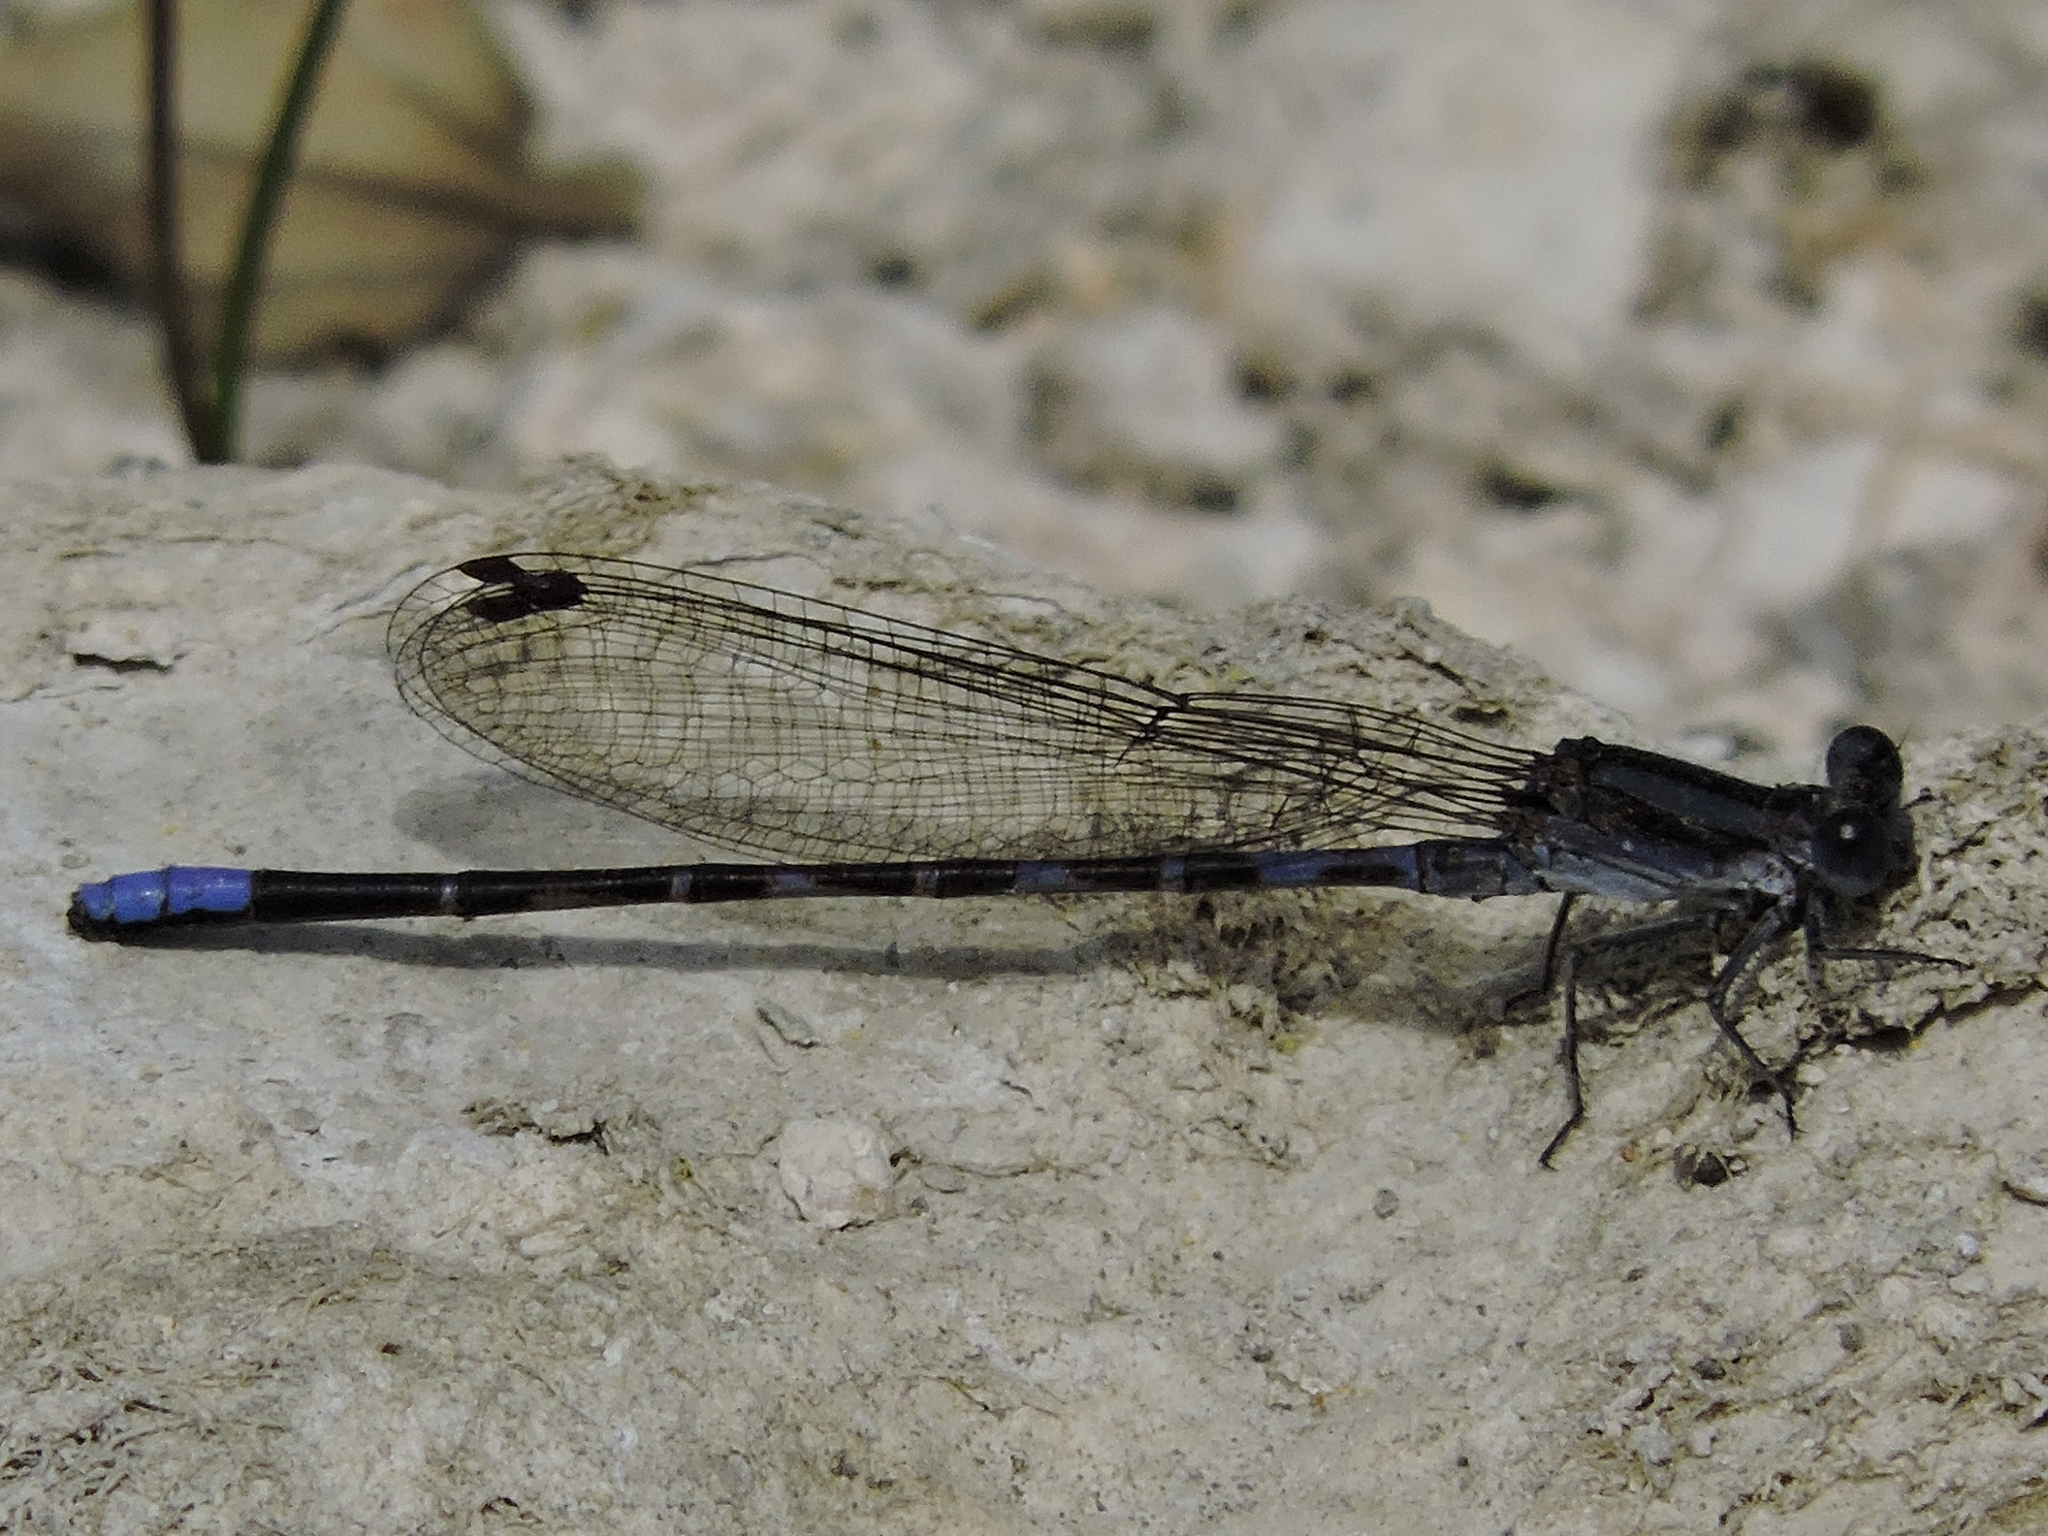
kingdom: Animalia
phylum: Arthropoda
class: Insecta
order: Odonata
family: Coenagrionidae
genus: Argia
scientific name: Argia immunda
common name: Kiowa dancer
